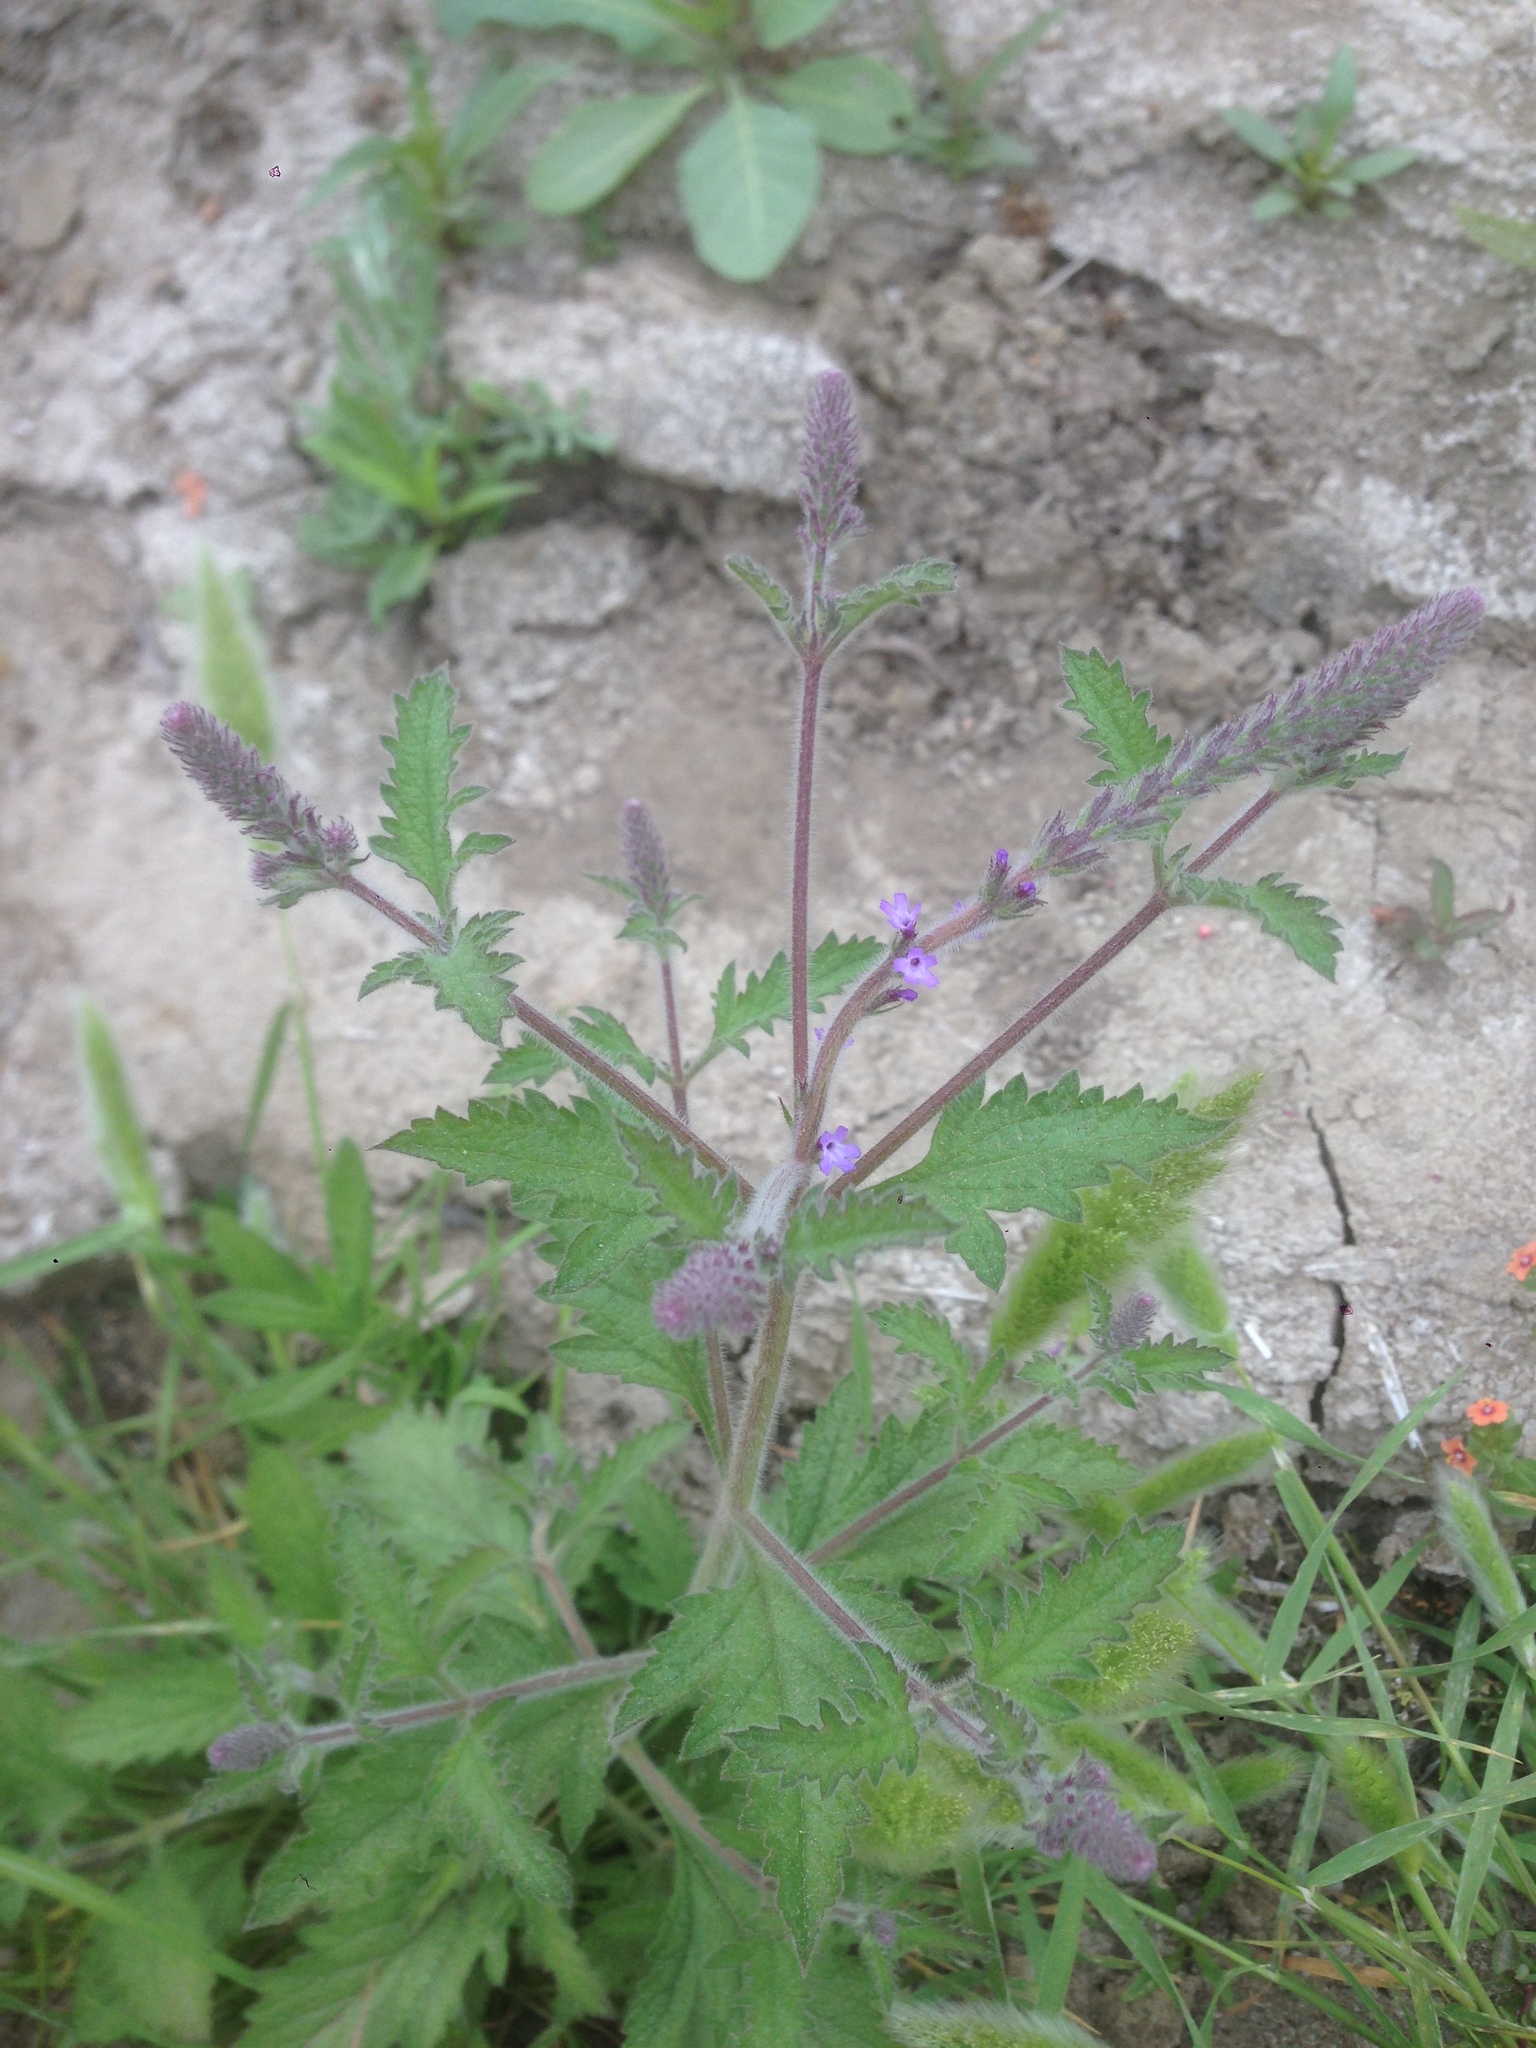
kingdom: Plantae
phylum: Tracheophyta
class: Magnoliopsida
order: Lamiales
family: Verbenaceae
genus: Verbena
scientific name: Verbena lasiostachys
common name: Vervain
